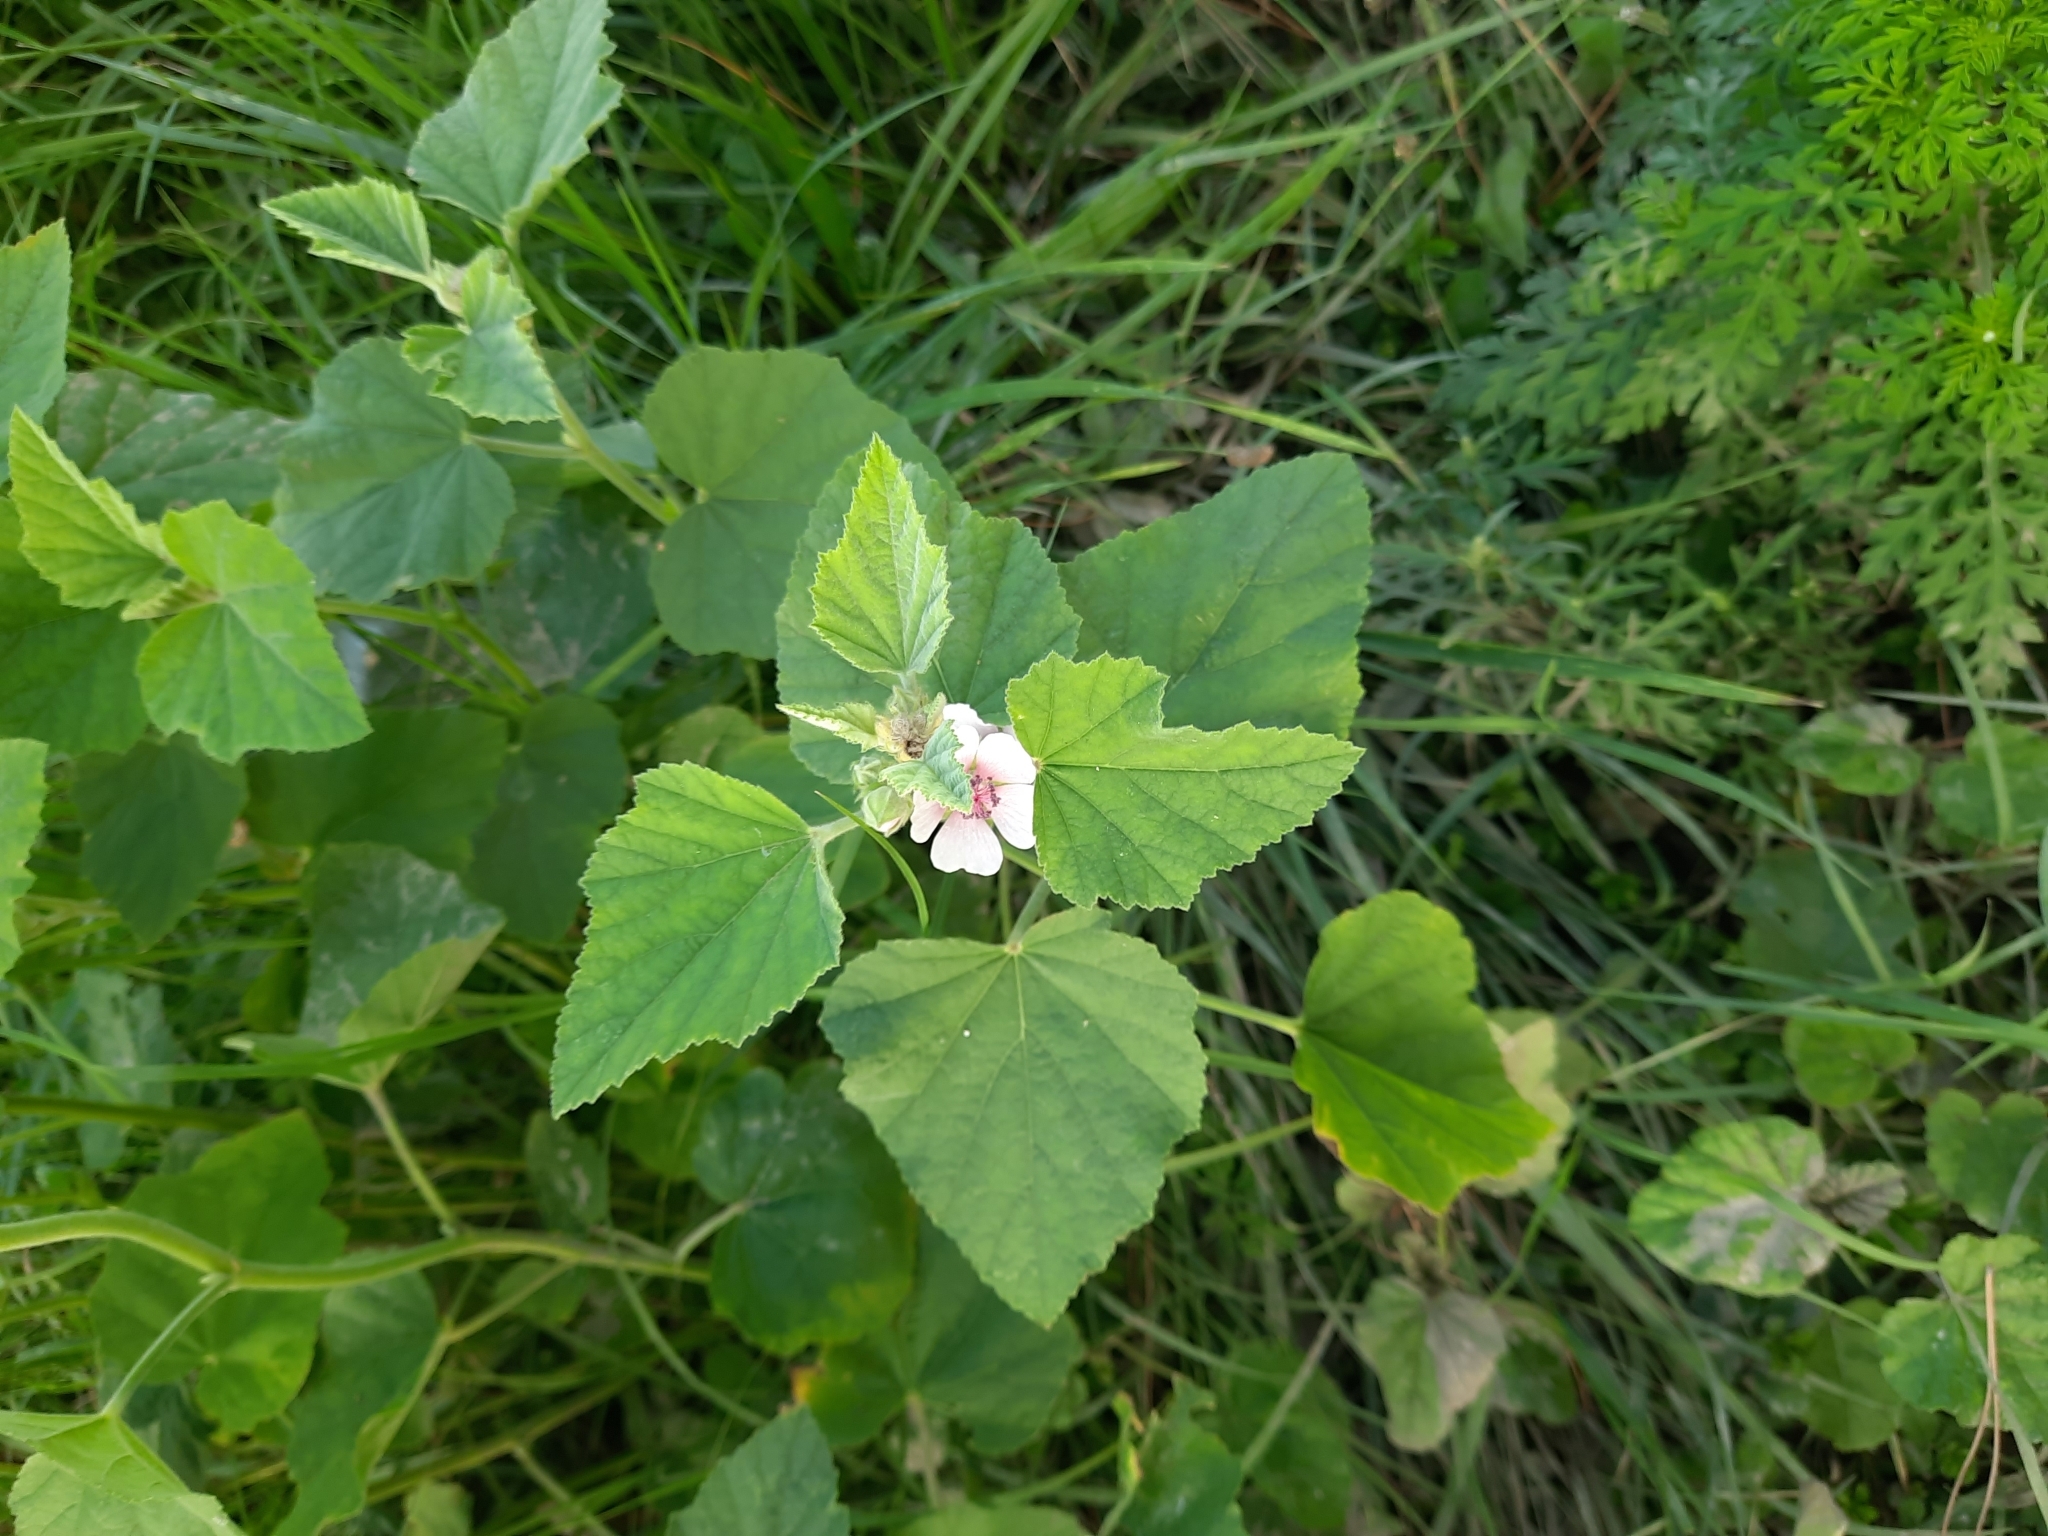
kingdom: Plantae
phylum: Tracheophyta
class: Magnoliopsida
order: Malvales
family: Malvaceae
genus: Althaea
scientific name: Althaea officinalis
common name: Marsh-mallow
